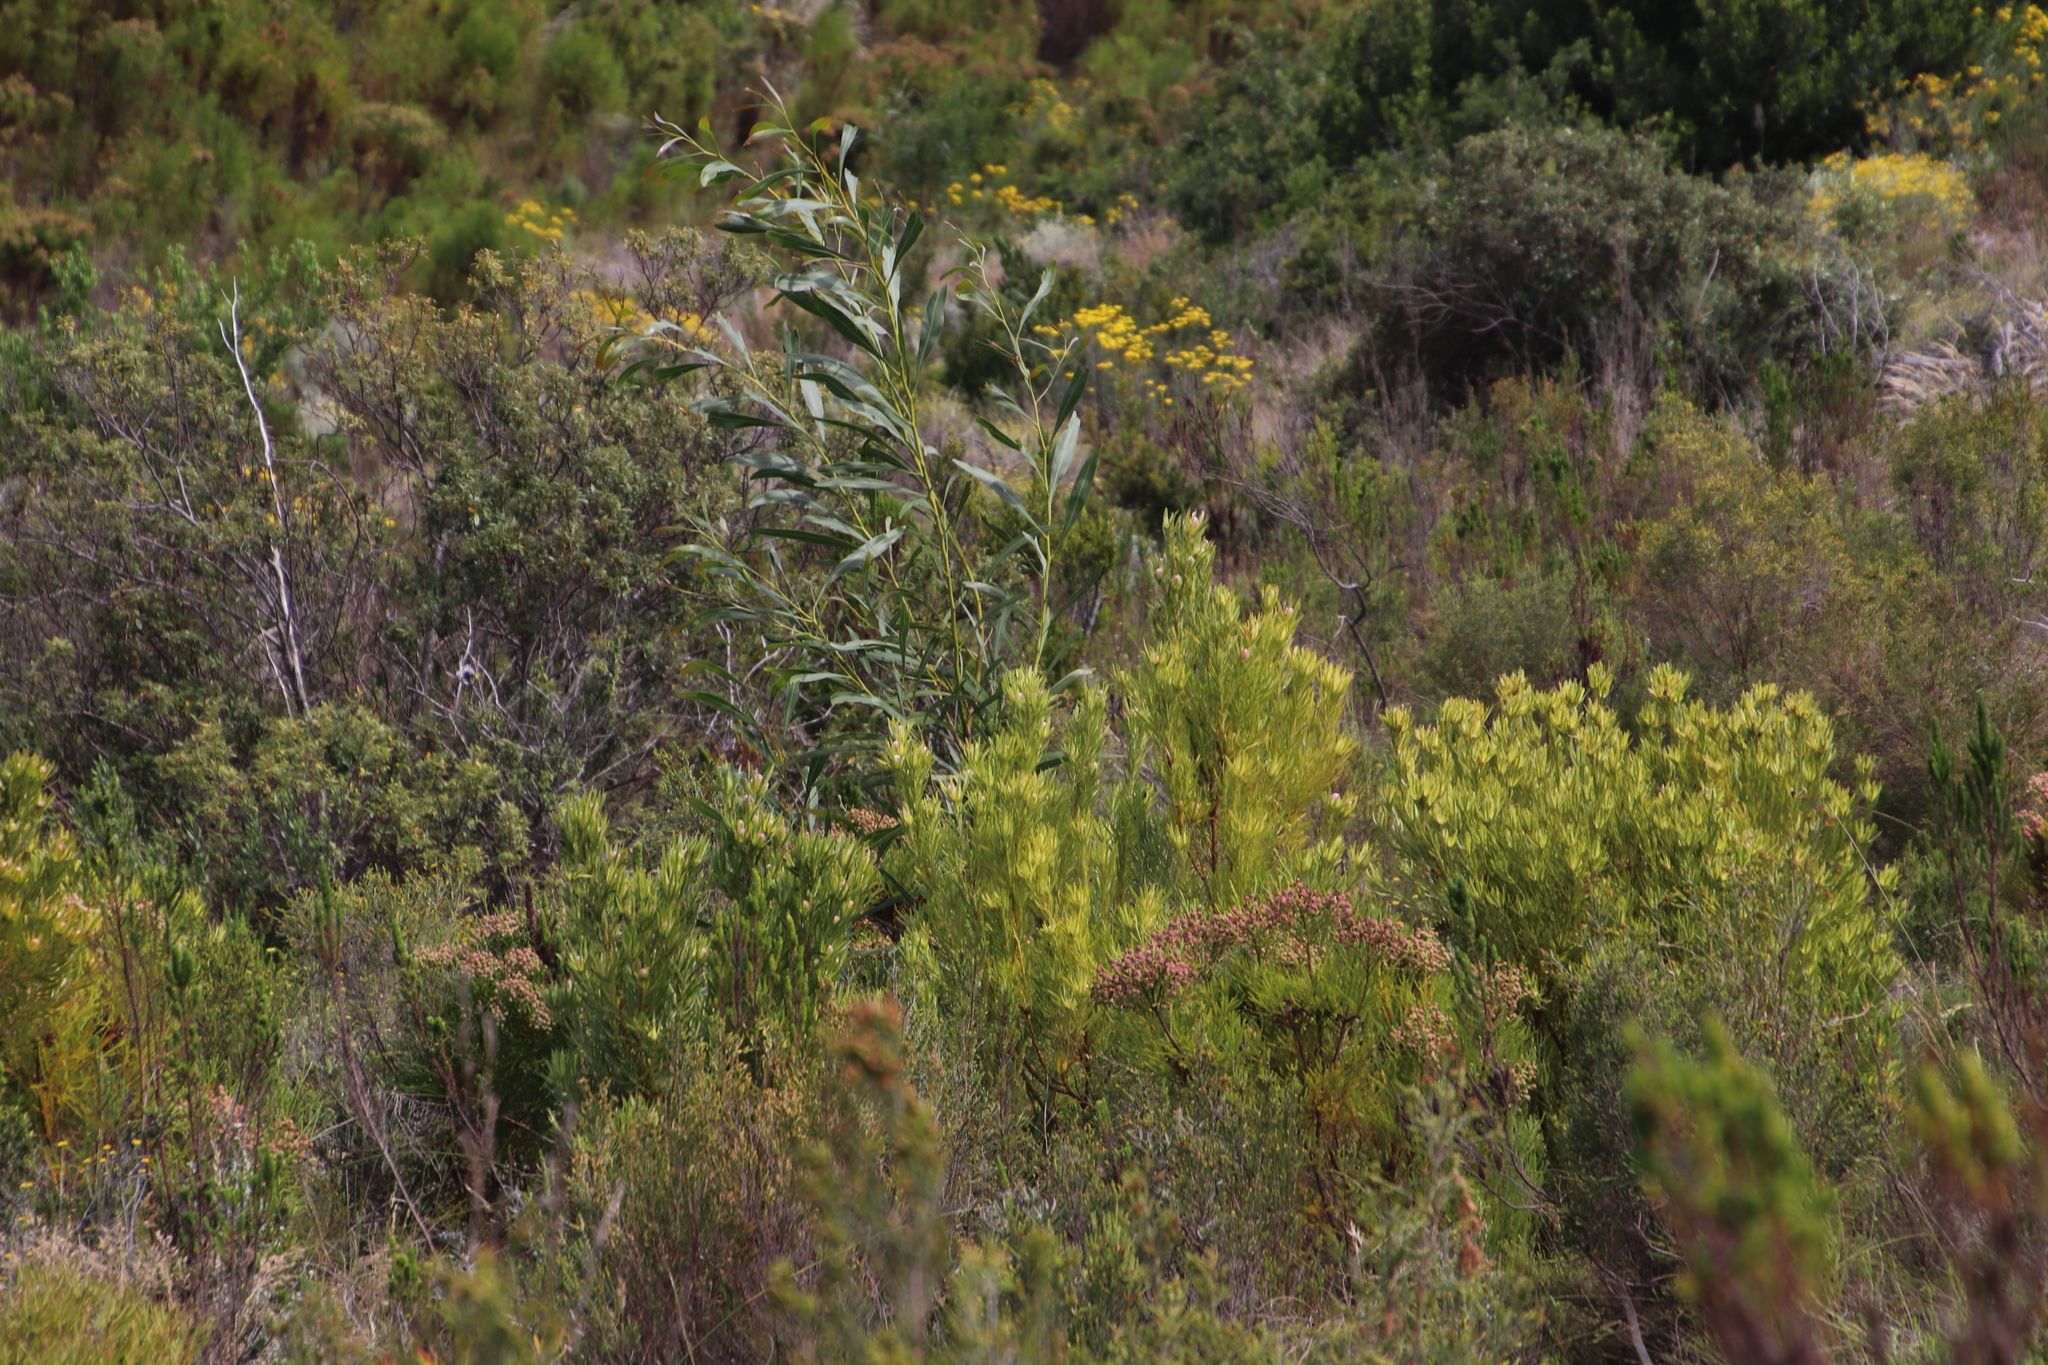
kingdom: Plantae
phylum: Tracheophyta
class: Magnoliopsida
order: Fabales
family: Fabaceae
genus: Acacia
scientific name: Acacia saligna
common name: Orange wattle
